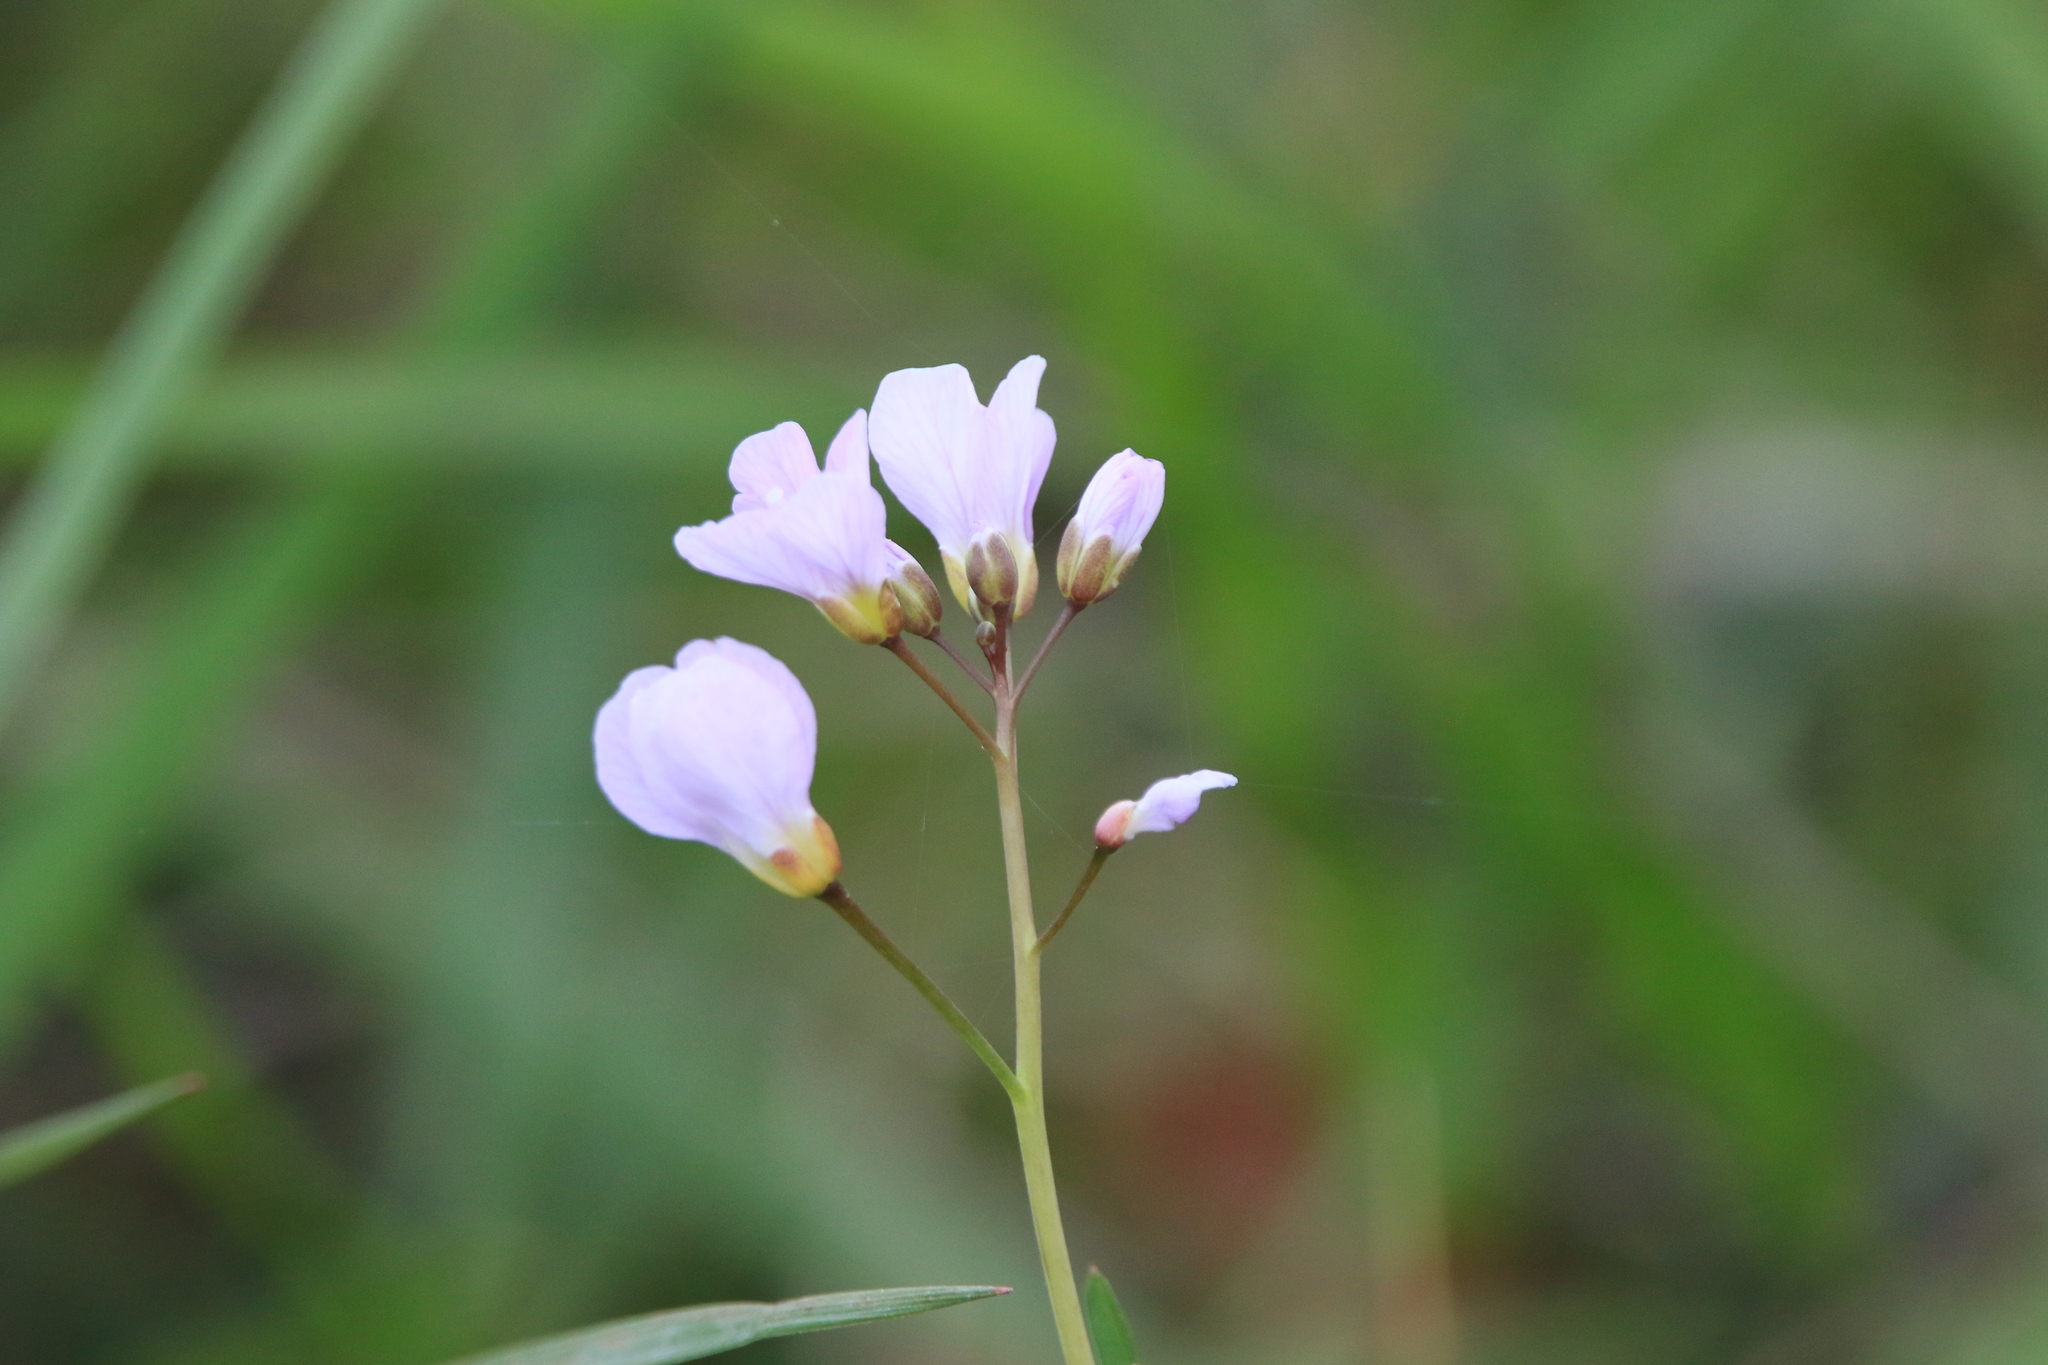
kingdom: Plantae
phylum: Tracheophyta
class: Magnoliopsida
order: Brassicales
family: Brassicaceae
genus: Cardamine
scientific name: Cardamine nuttallii
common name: Nuttall's toothwort
